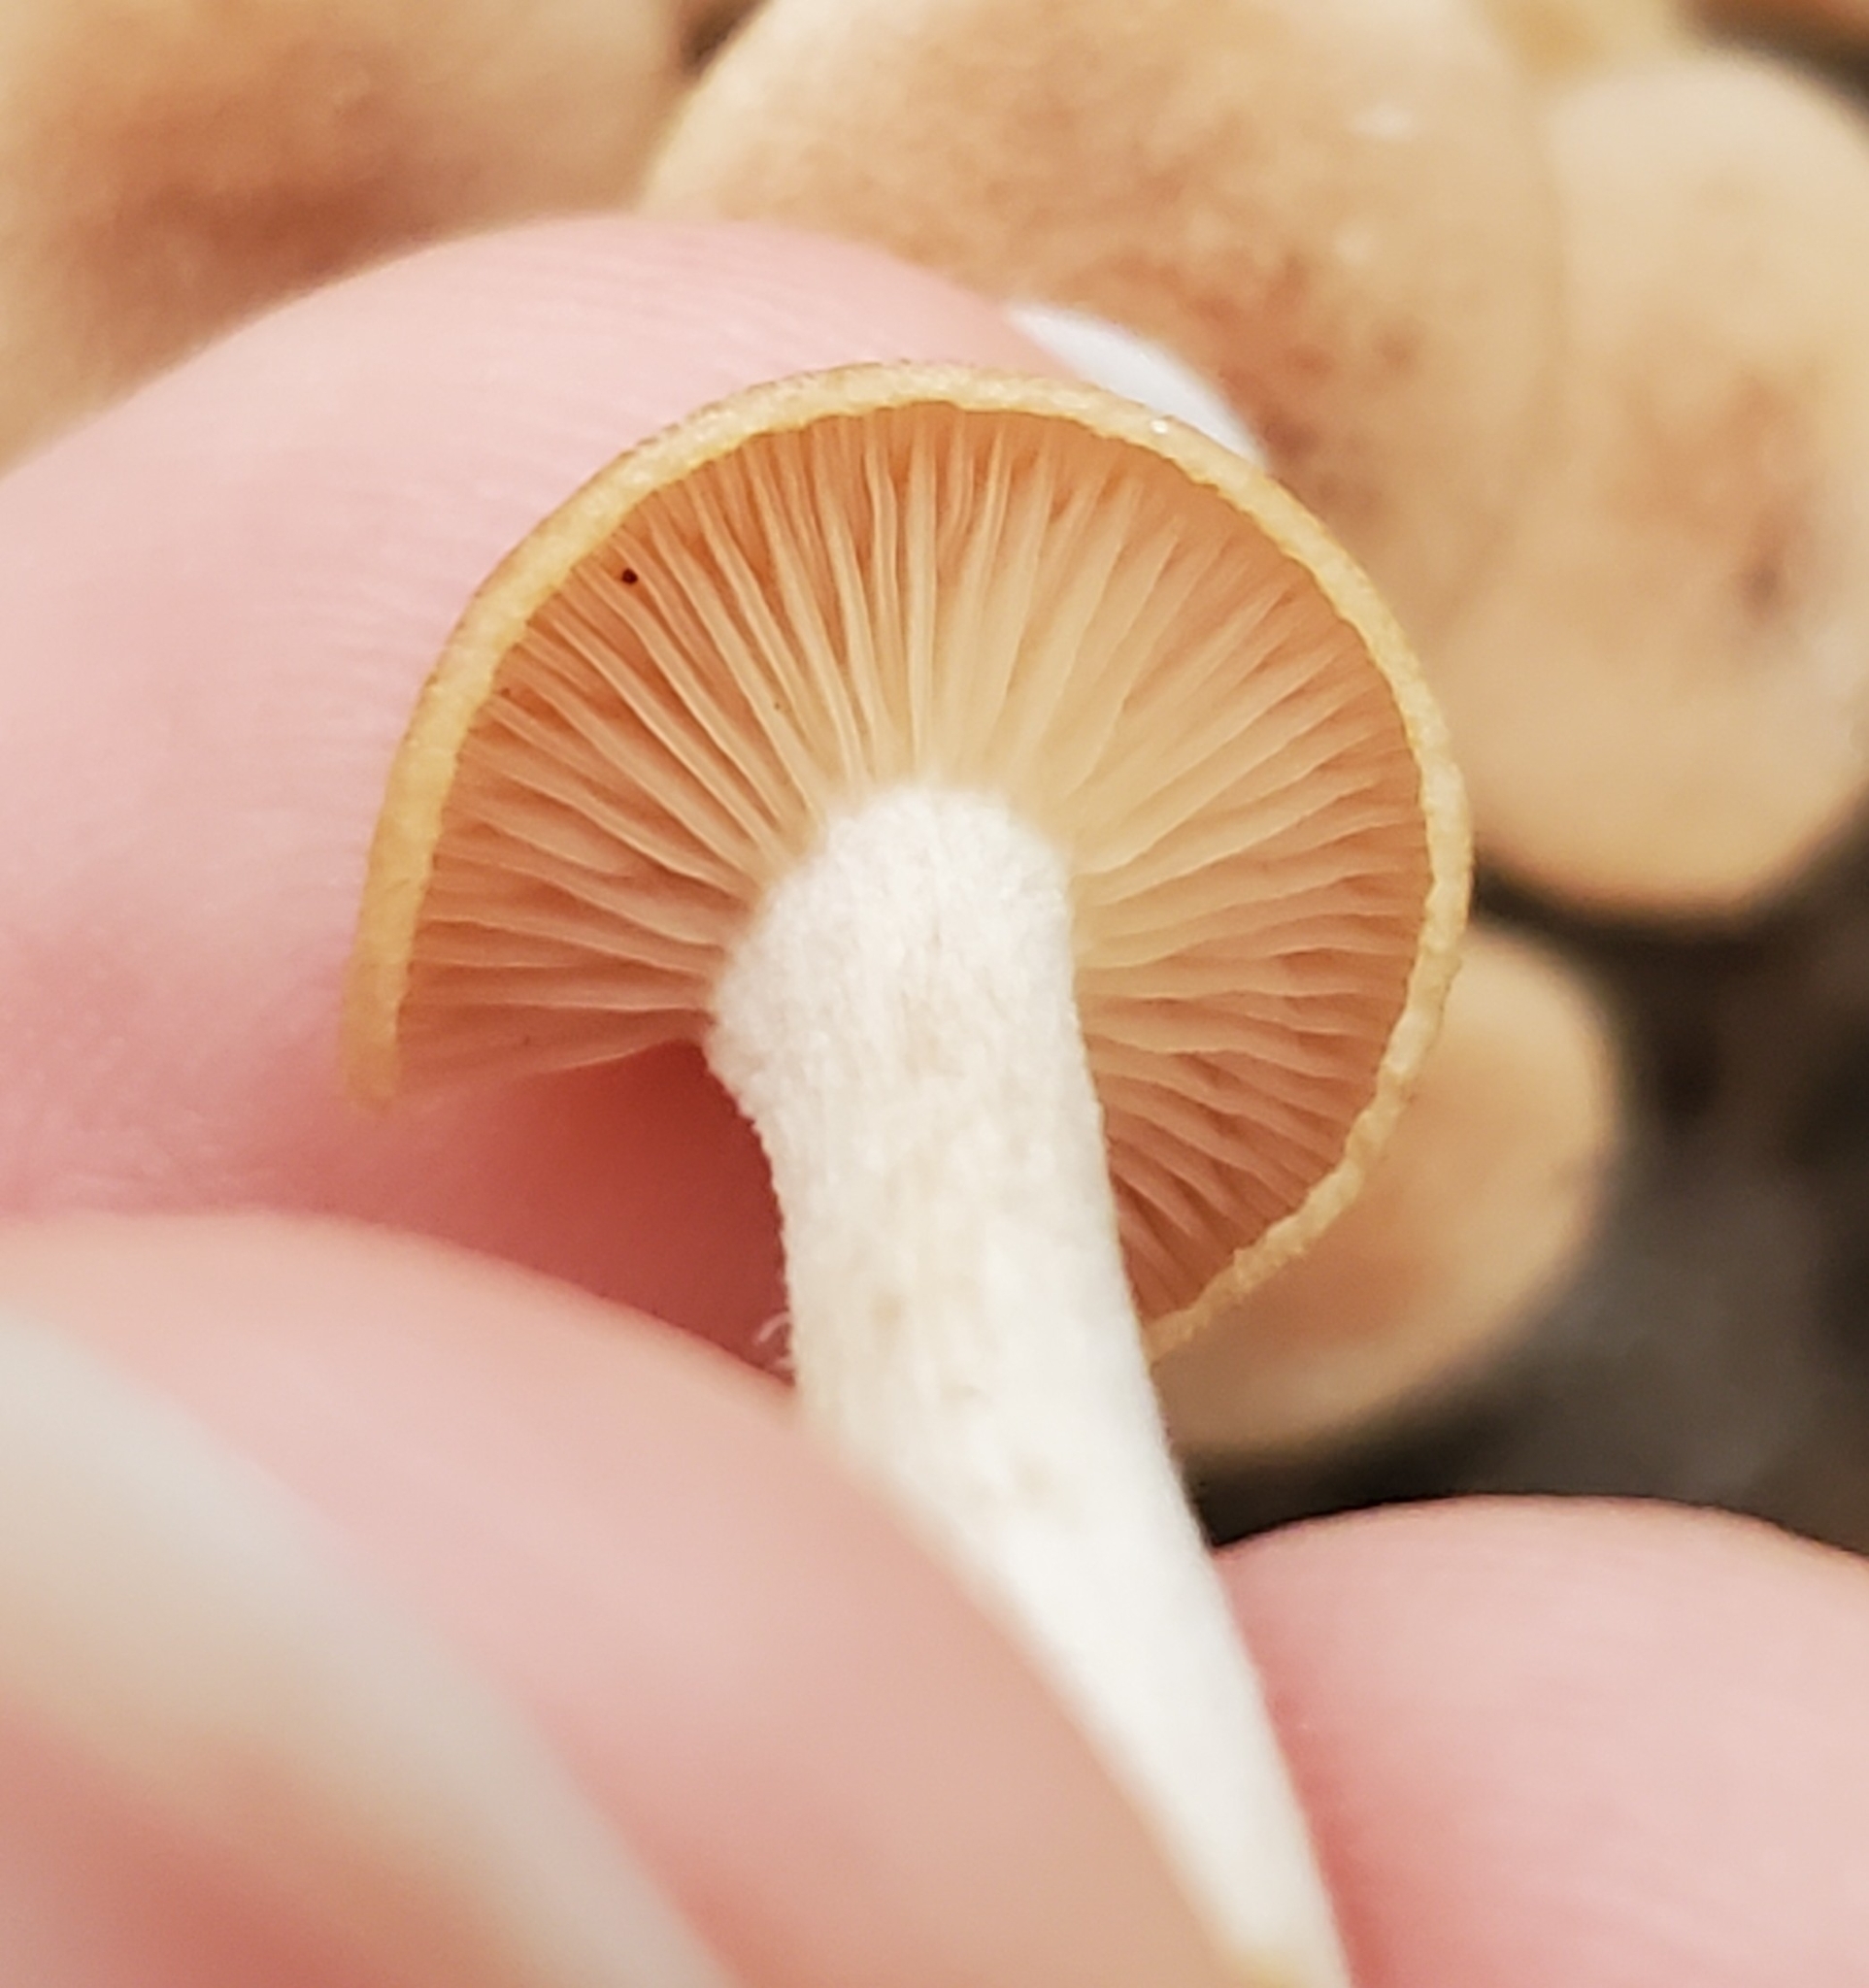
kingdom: Fungi
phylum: Basidiomycota
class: Agaricomycetes
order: Agaricales
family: Physalacriaceae
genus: Desarmillaria
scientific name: Desarmillaria caespitosa
